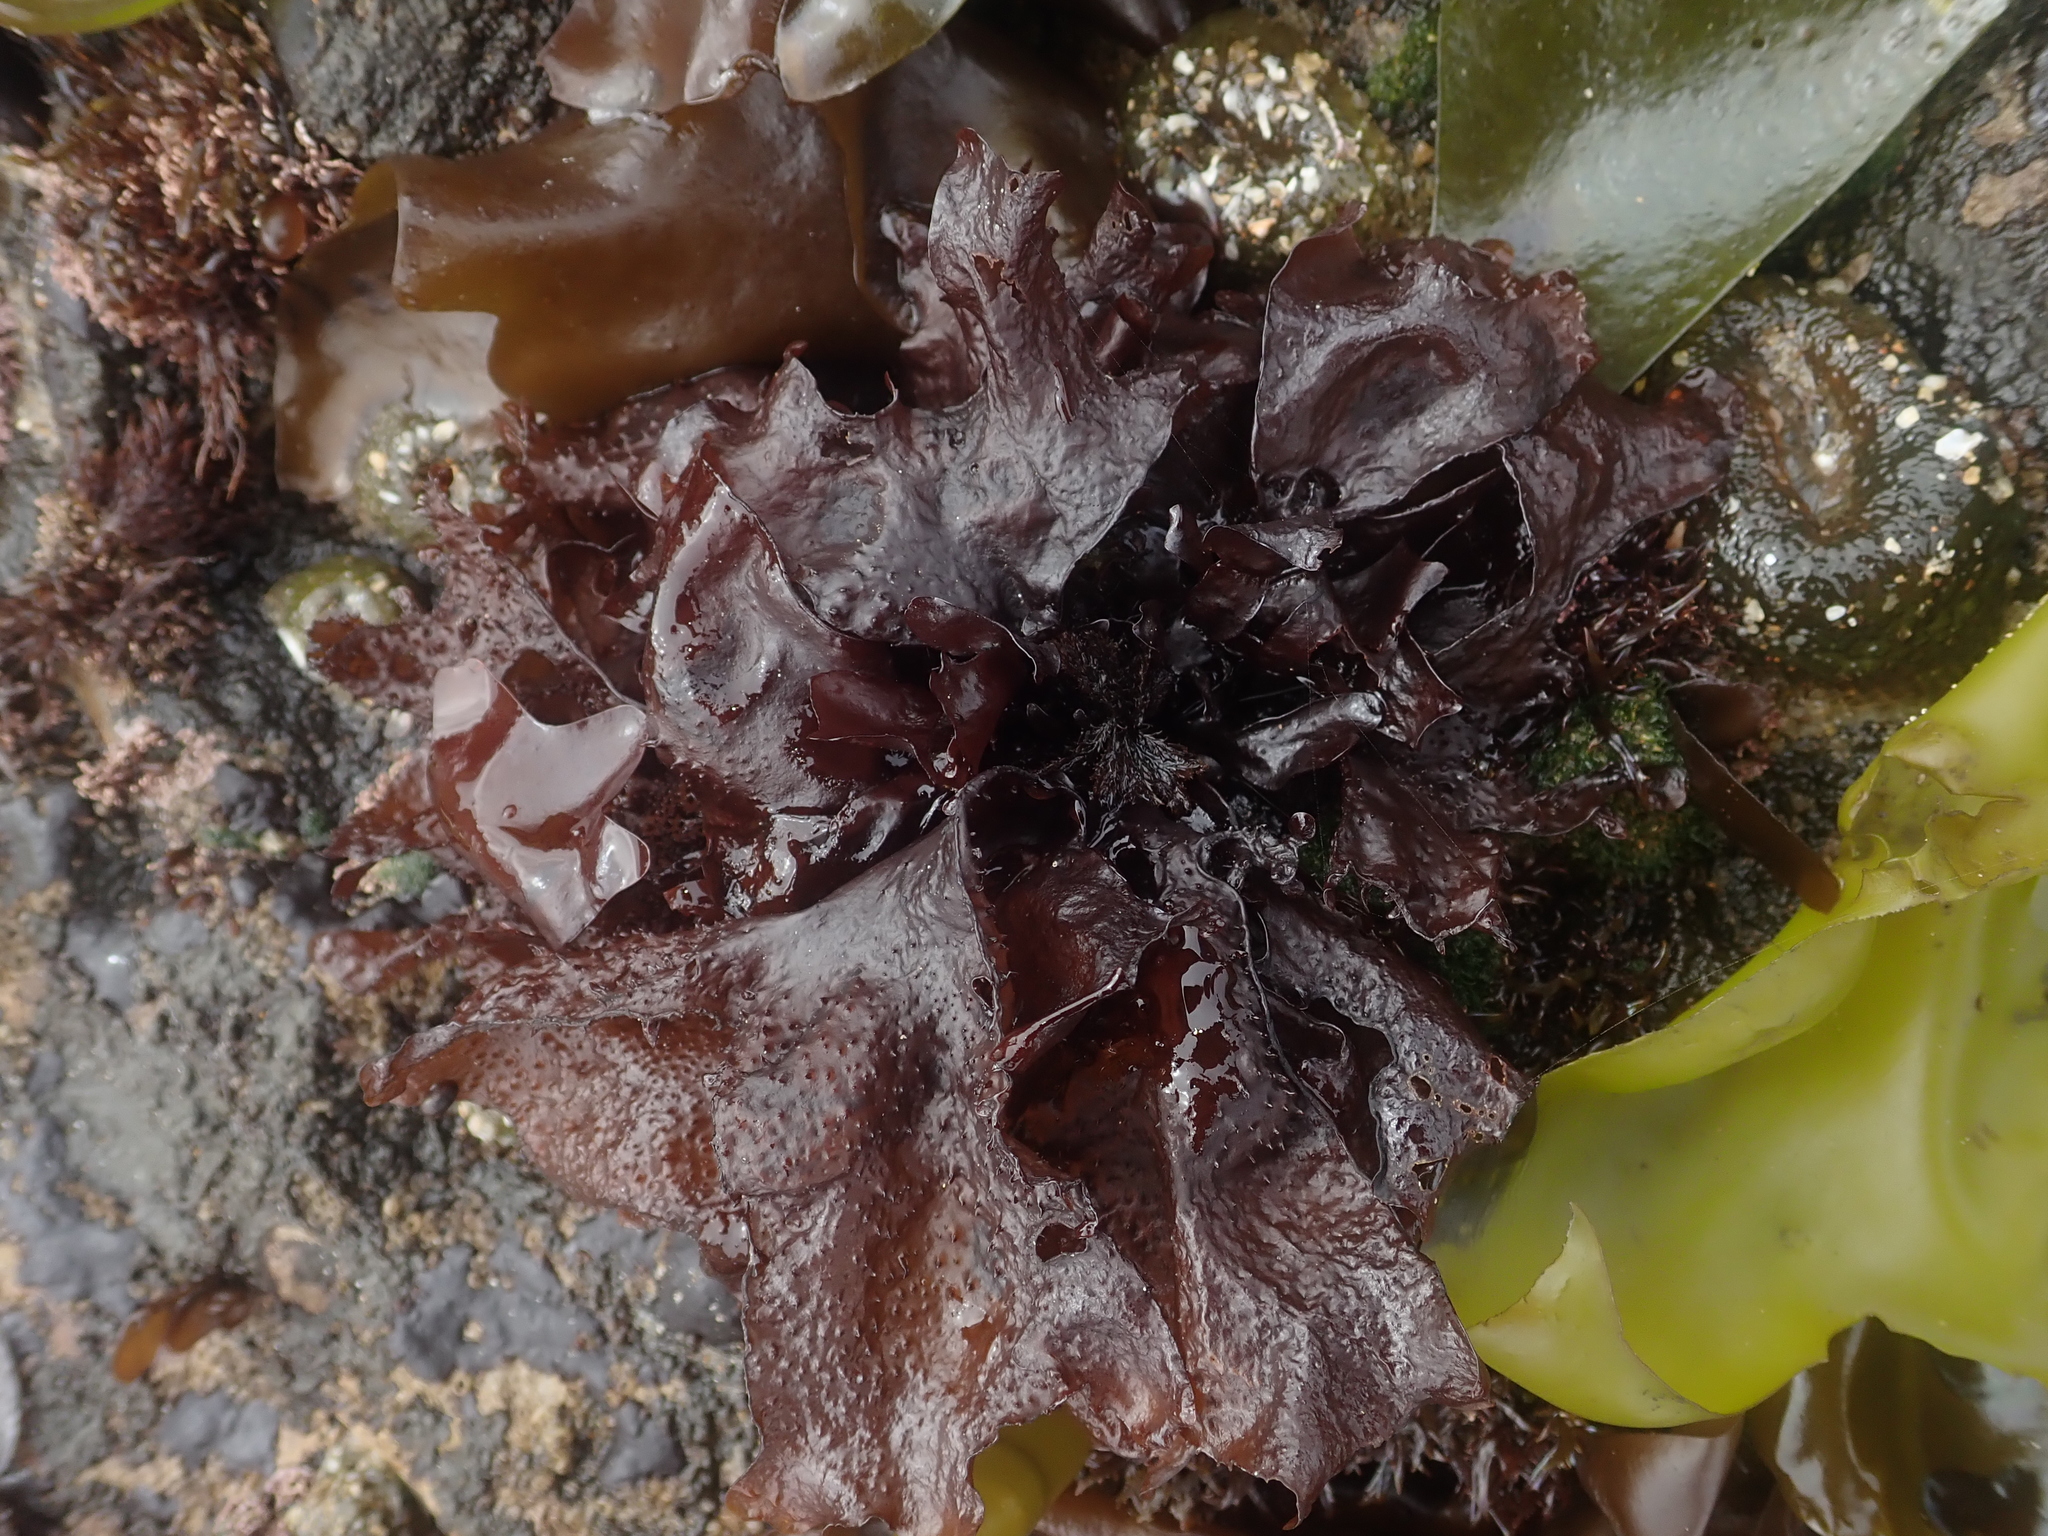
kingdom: Plantae
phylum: Rhodophyta
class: Florideophyceae
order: Gigartinales
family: Phyllophoraceae
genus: Mastocarpus
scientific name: Mastocarpus papillatus
